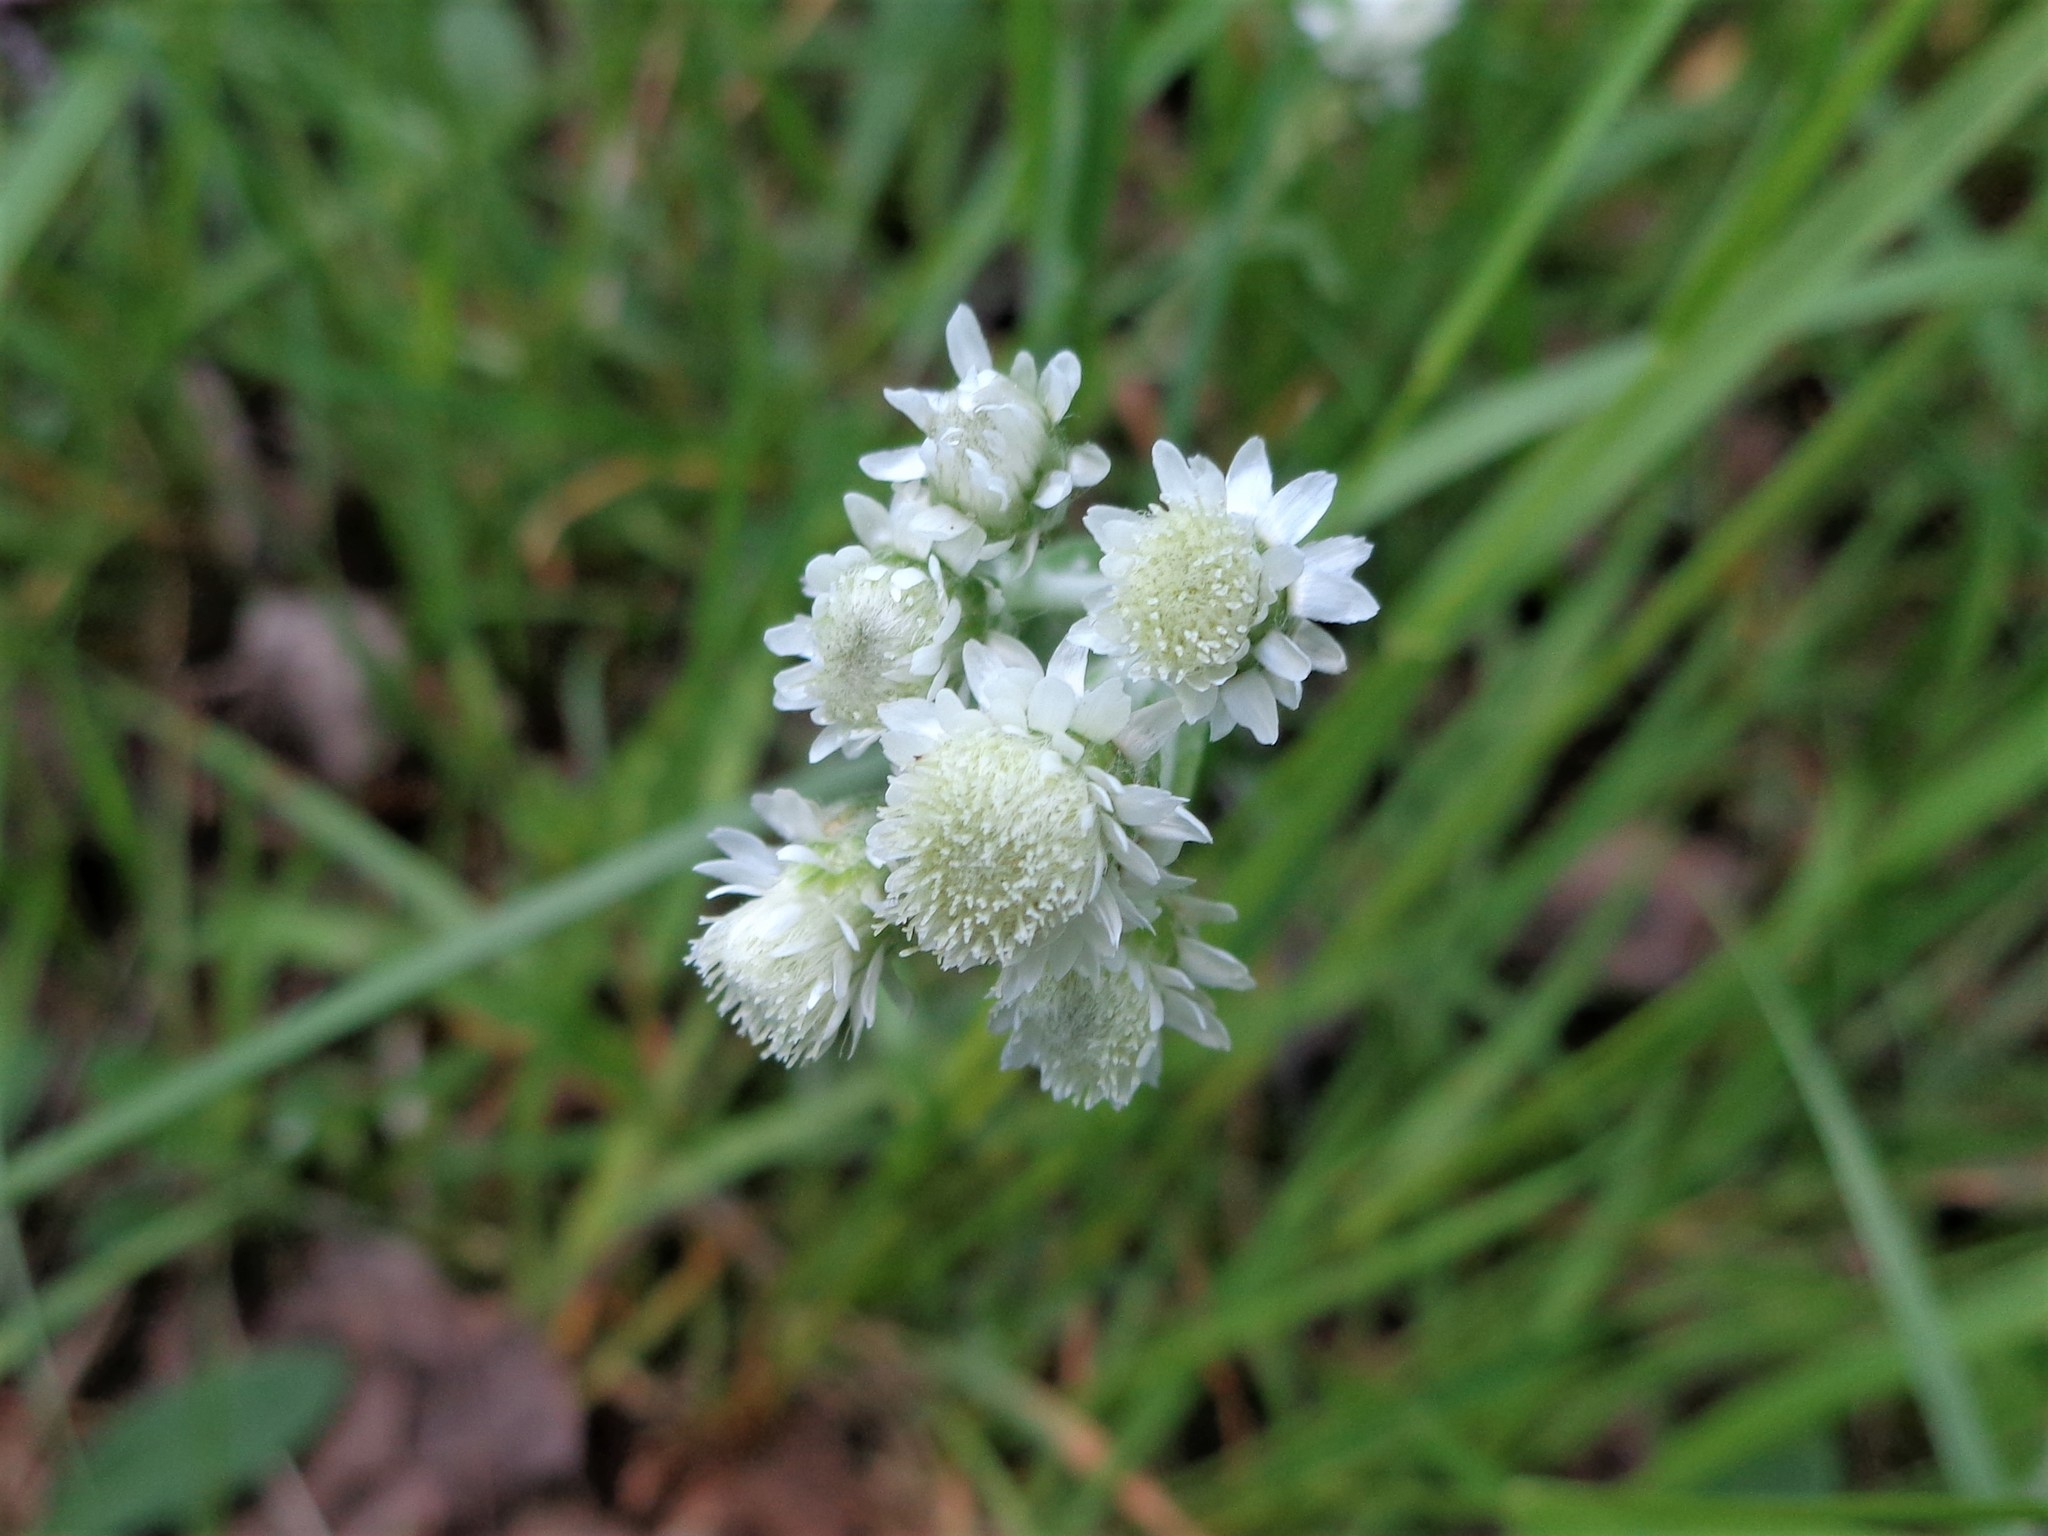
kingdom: Plantae
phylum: Tracheophyta
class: Magnoliopsida
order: Asterales
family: Asteraceae
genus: Antennaria
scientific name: Antennaria dioica
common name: Mountain everlasting
